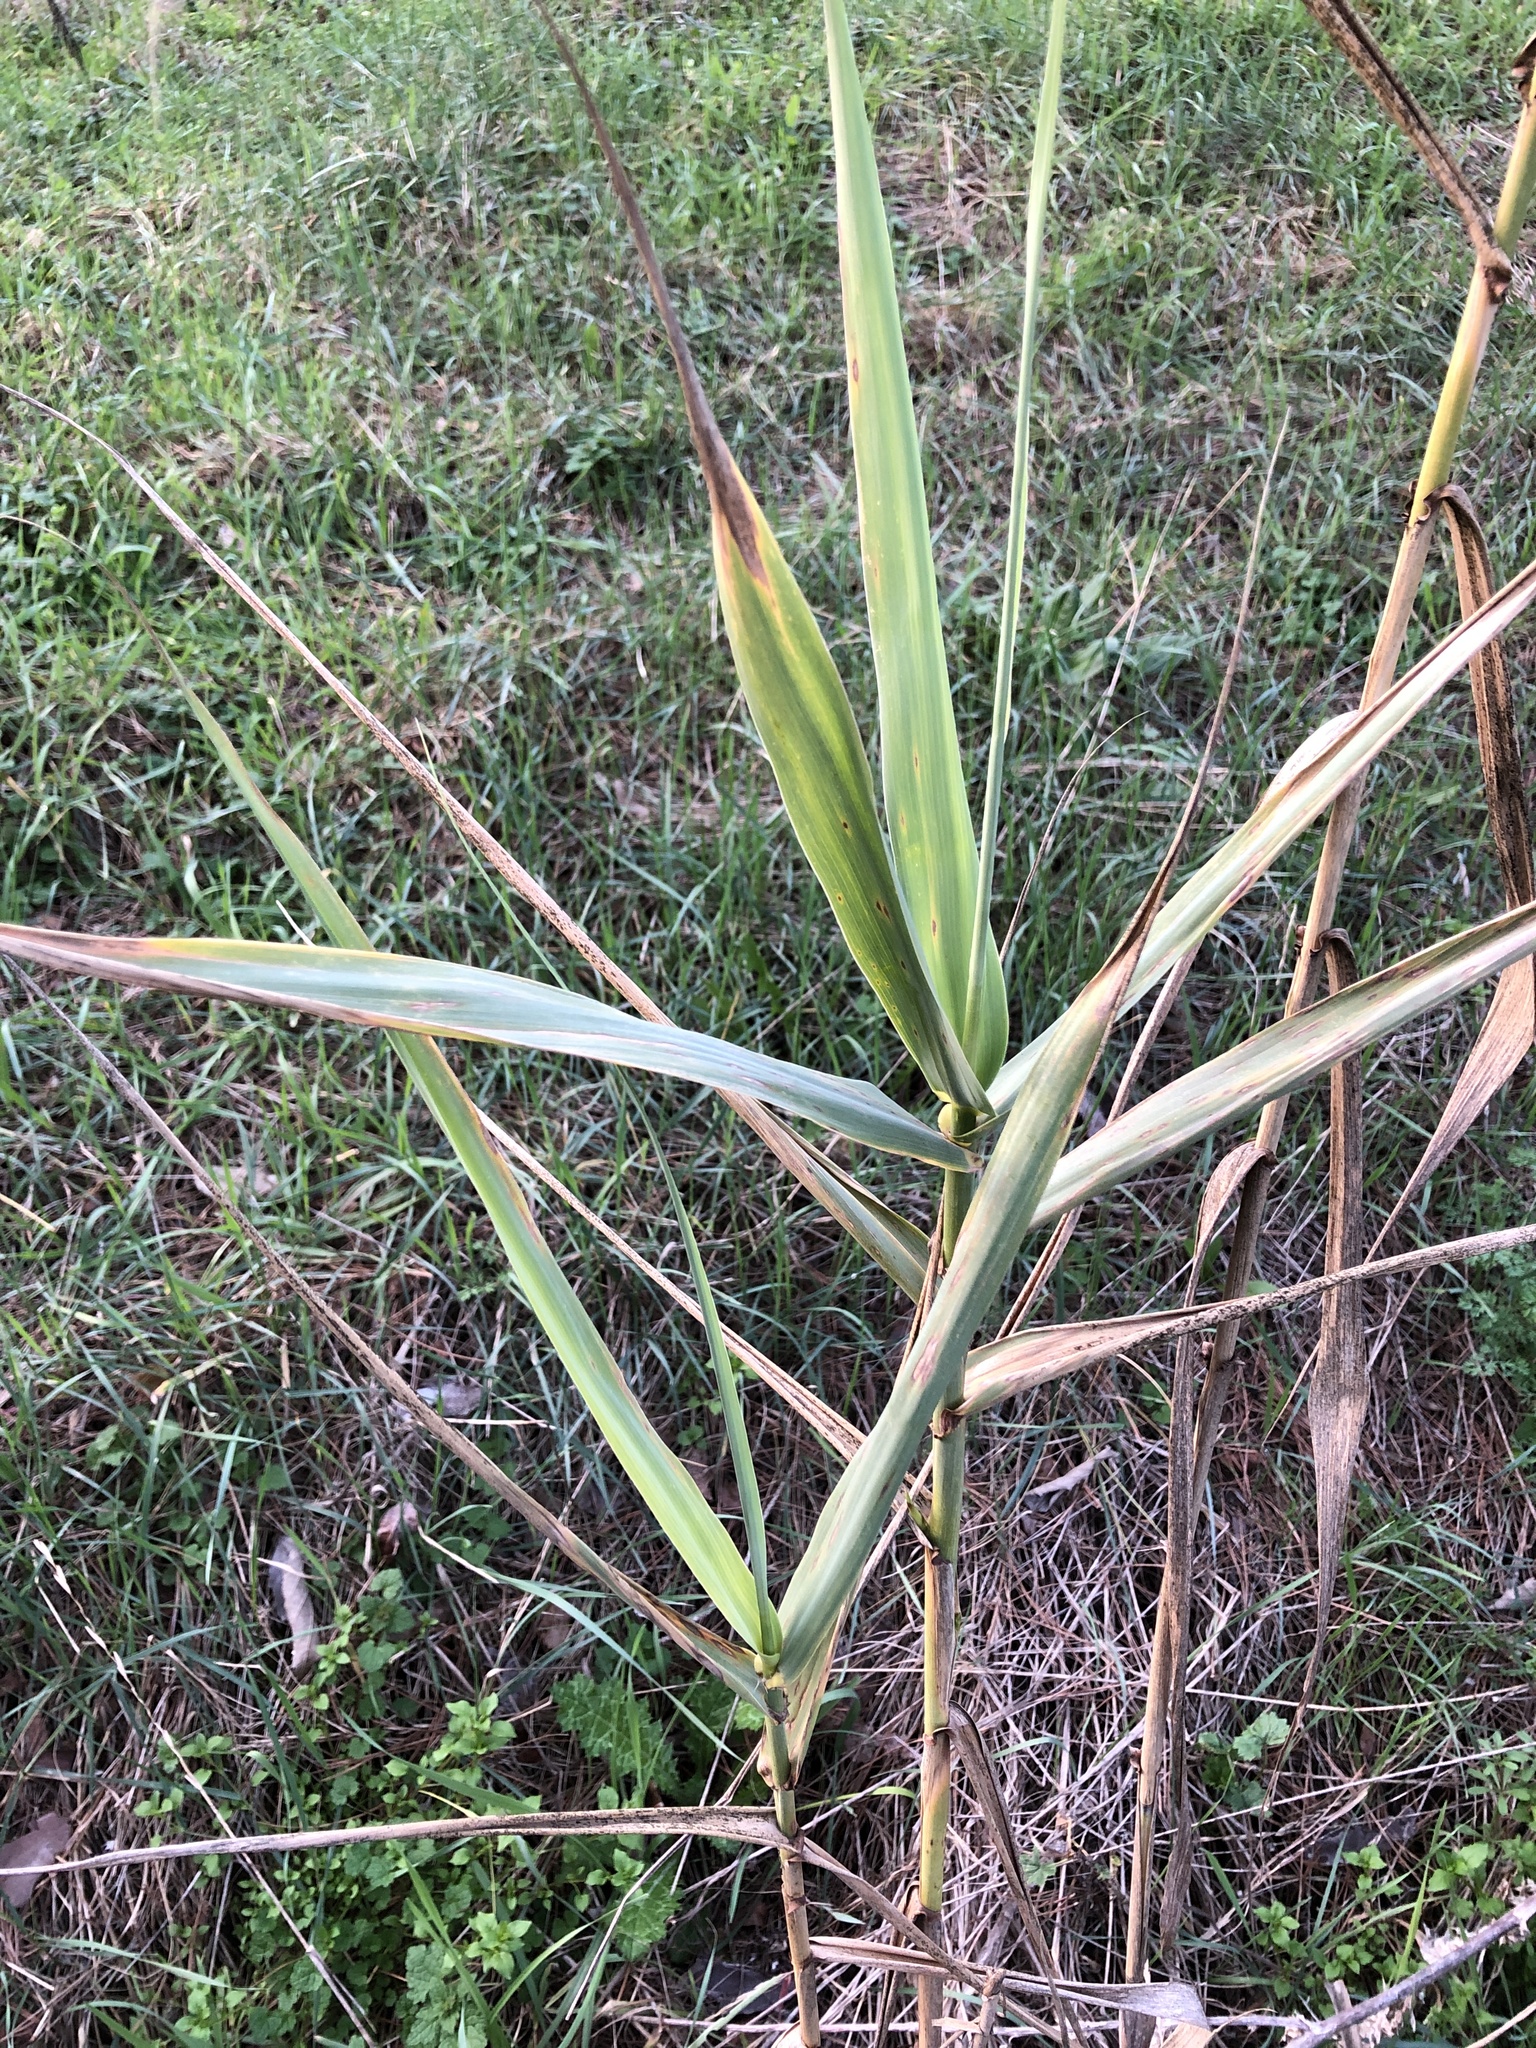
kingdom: Plantae
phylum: Tracheophyta
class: Liliopsida
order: Poales
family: Poaceae
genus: Arundo
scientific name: Arundo donax
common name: Giant reed
